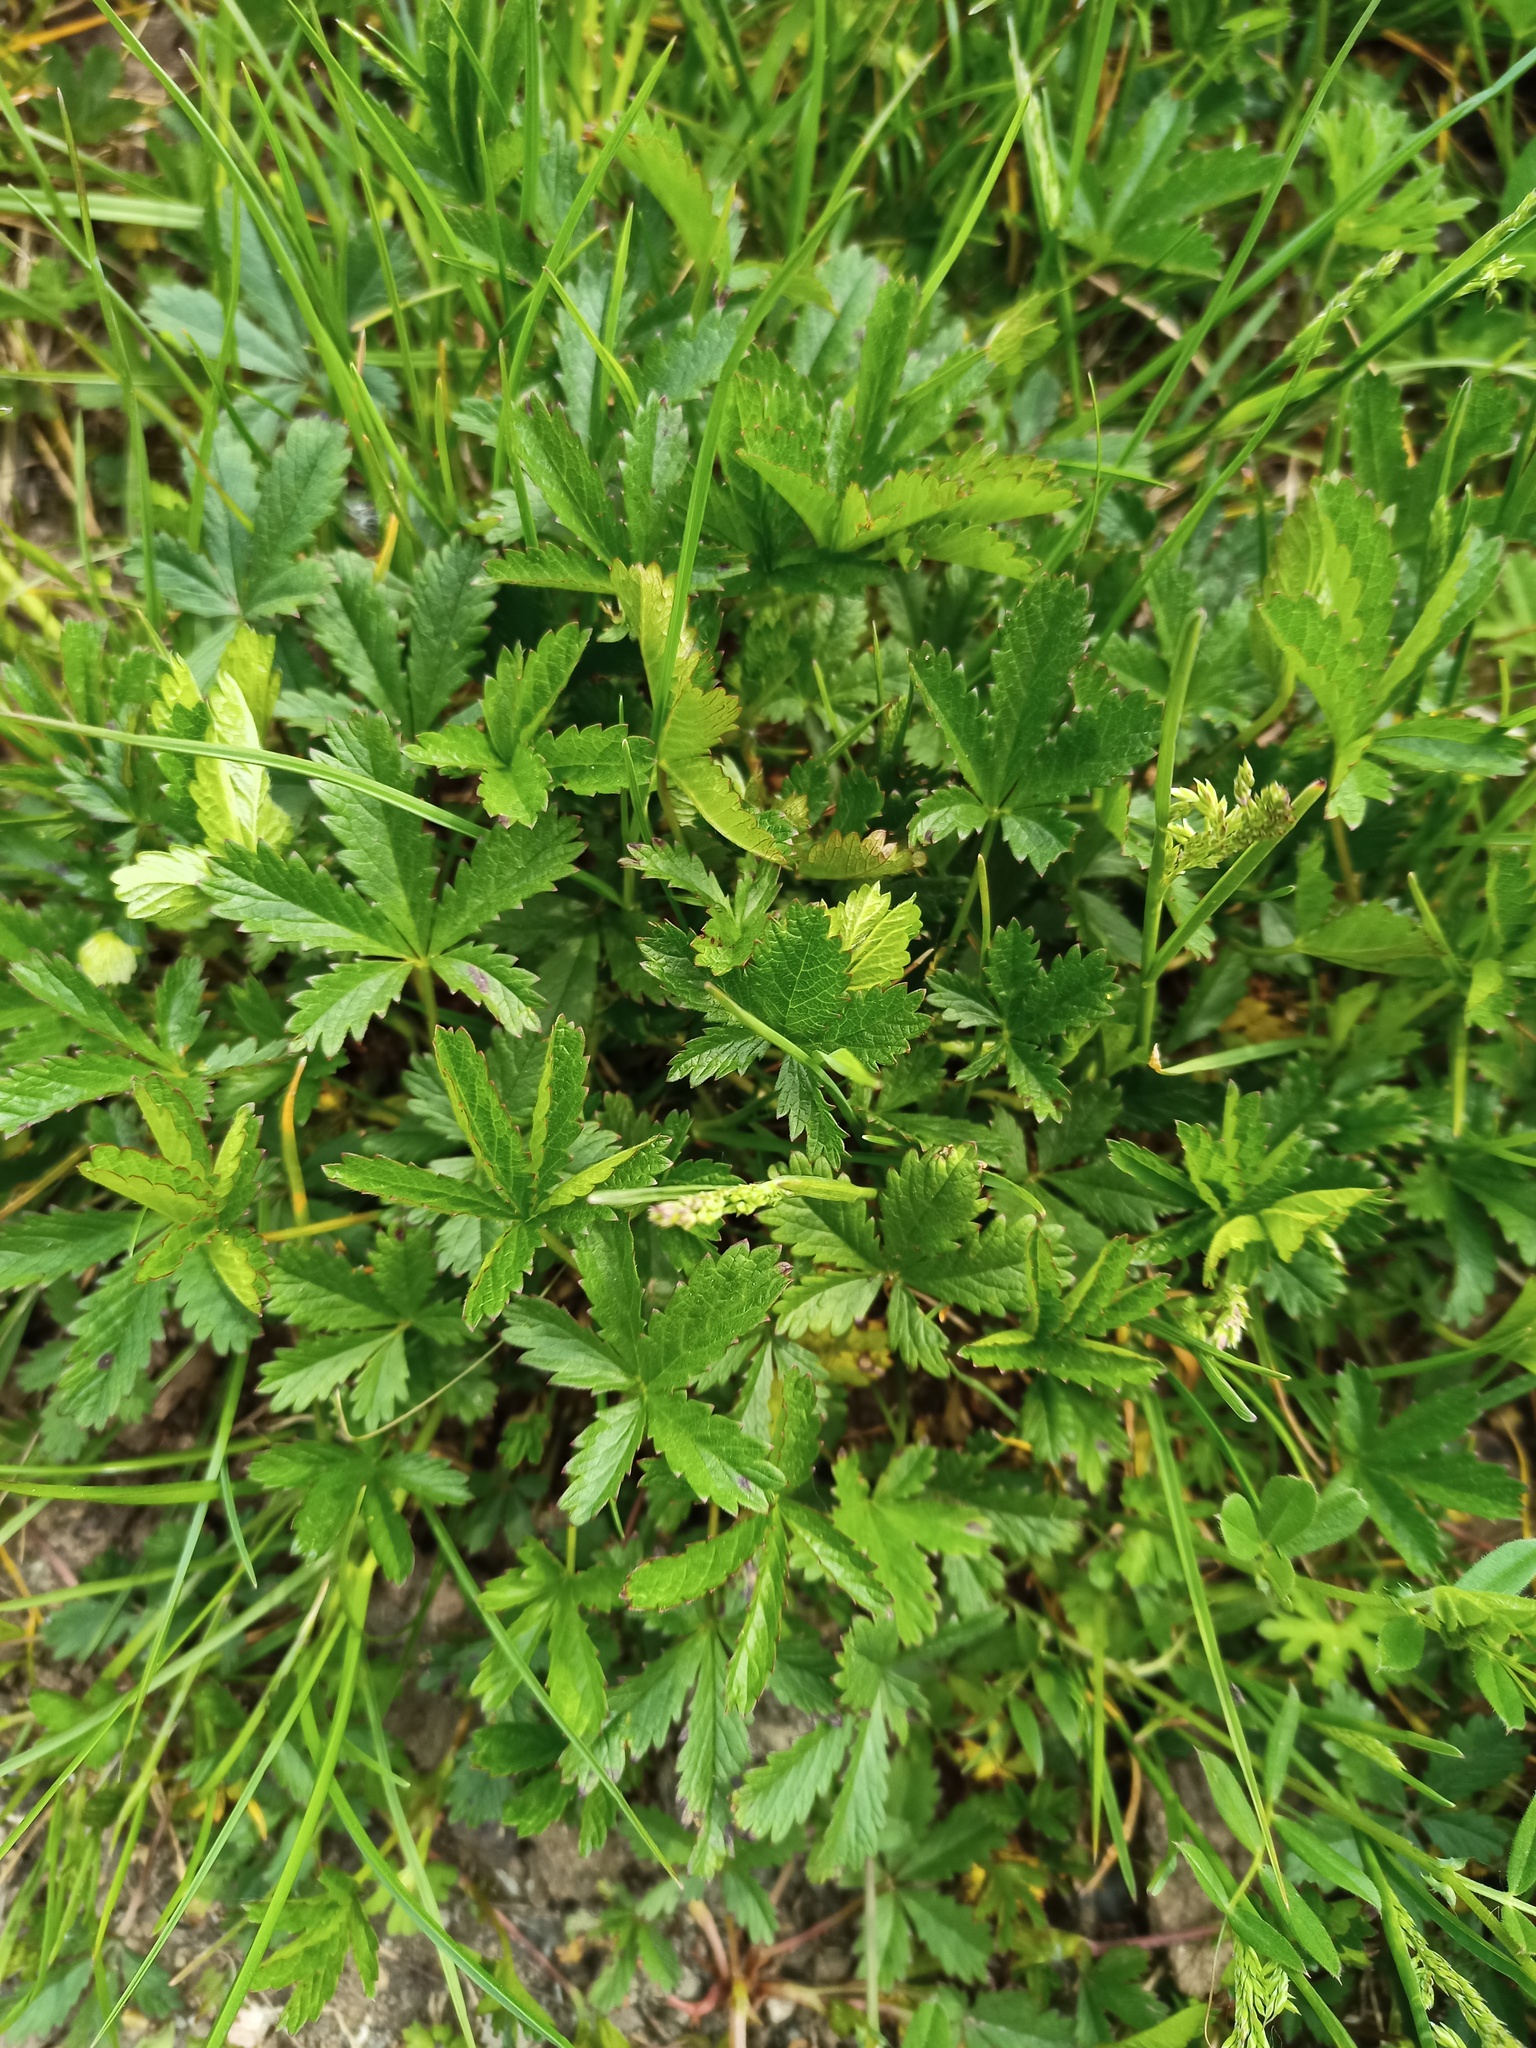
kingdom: Plantae
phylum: Tracheophyta
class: Magnoliopsida
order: Rosales
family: Rosaceae
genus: Potentilla
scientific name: Potentilla reptans
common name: Creeping cinquefoil
